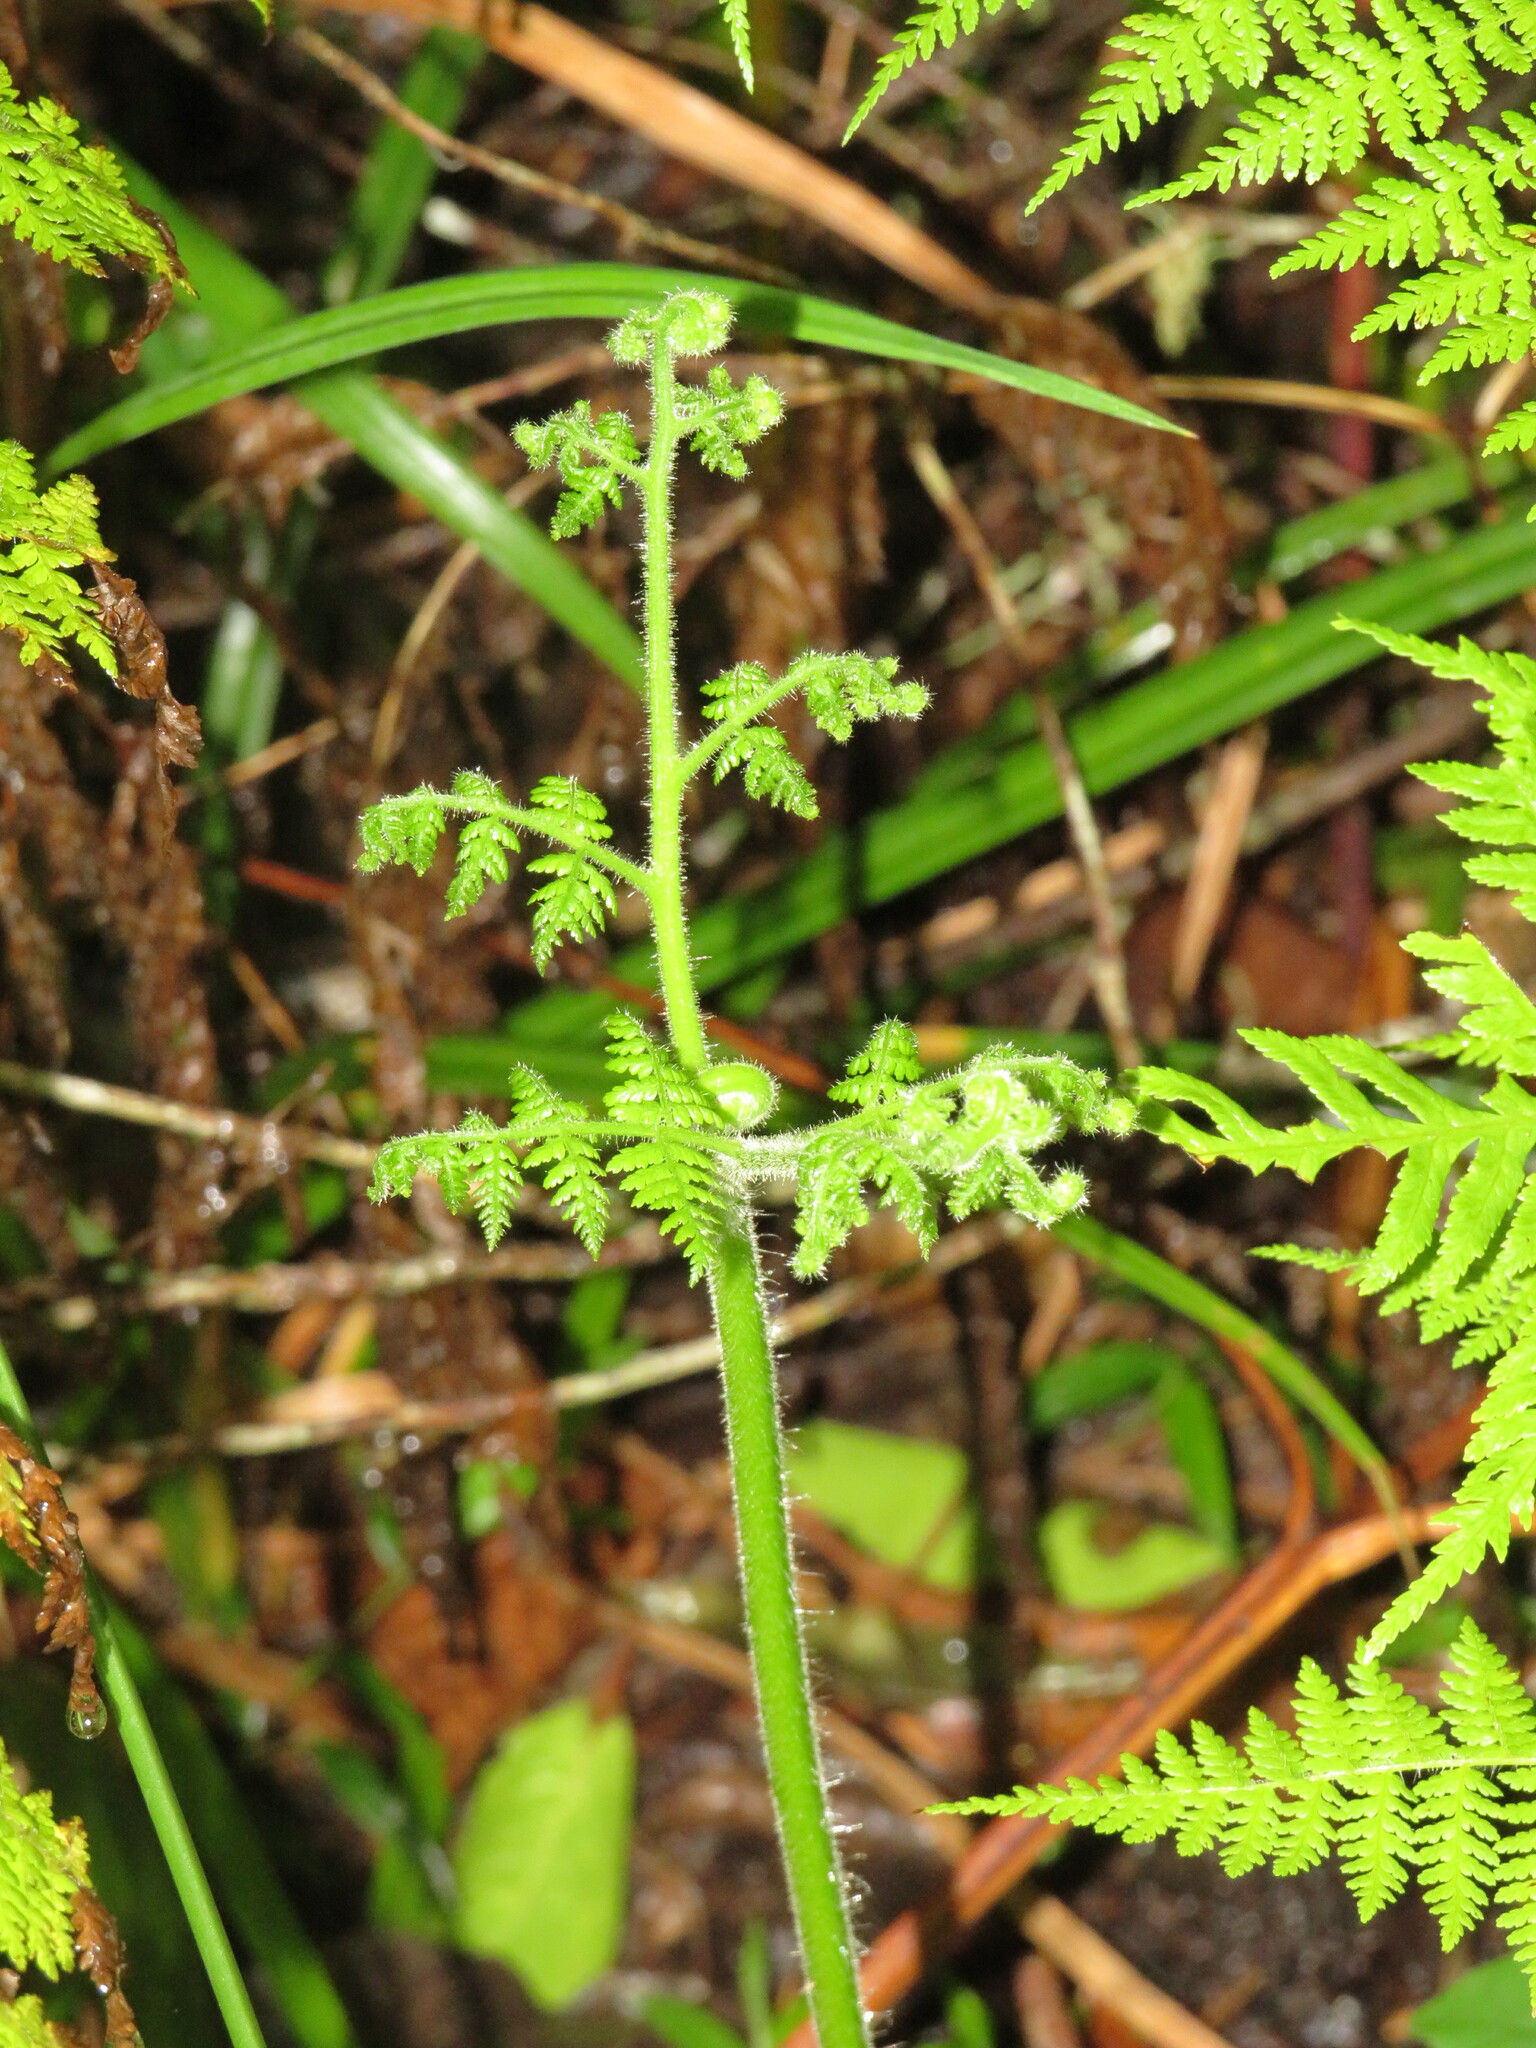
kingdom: Plantae
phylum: Tracheophyta
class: Polypodiopsida
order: Polypodiales
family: Dennstaedtiaceae
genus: Hypolepis
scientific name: Hypolepis sparsisora
